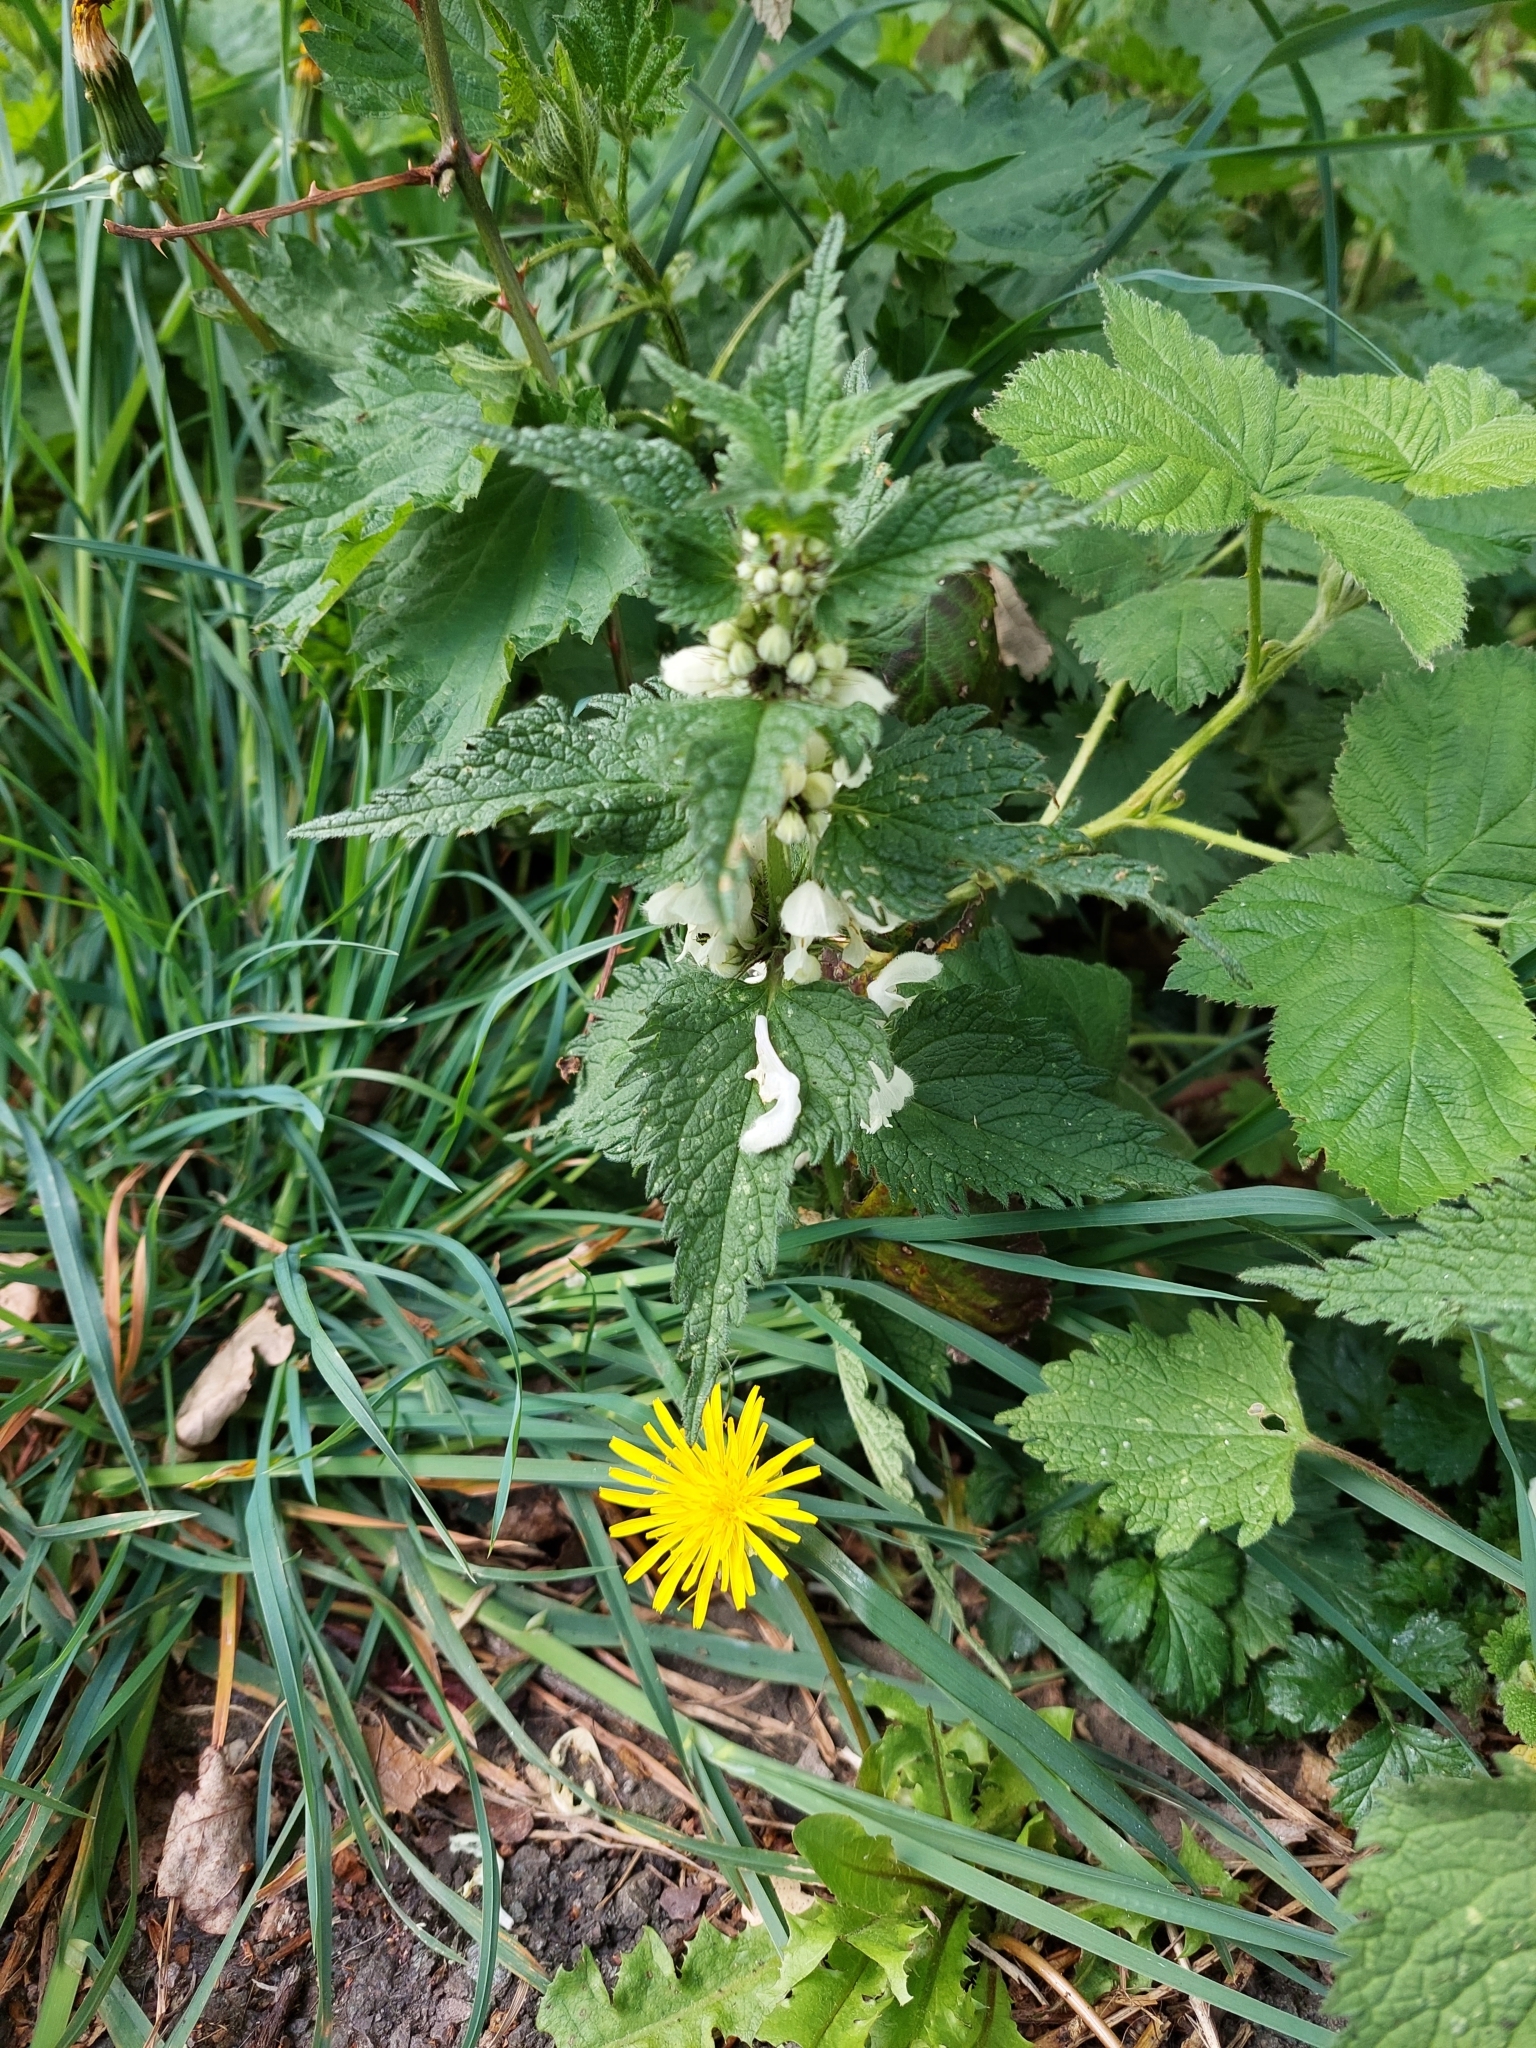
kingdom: Plantae
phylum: Tracheophyta
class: Magnoliopsida
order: Lamiales
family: Lamiaceae
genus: Lamium
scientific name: Lamium album
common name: White dead-nettle
